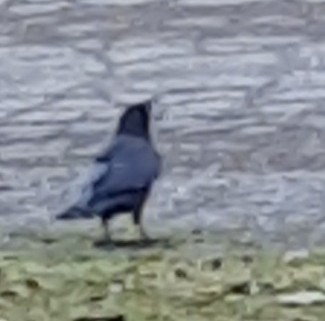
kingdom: Animalia
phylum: Chordata
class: Aves
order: Passeriformes
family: Corvidae
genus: Corvus
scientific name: Corvus brachyrhynchos
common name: American crow
